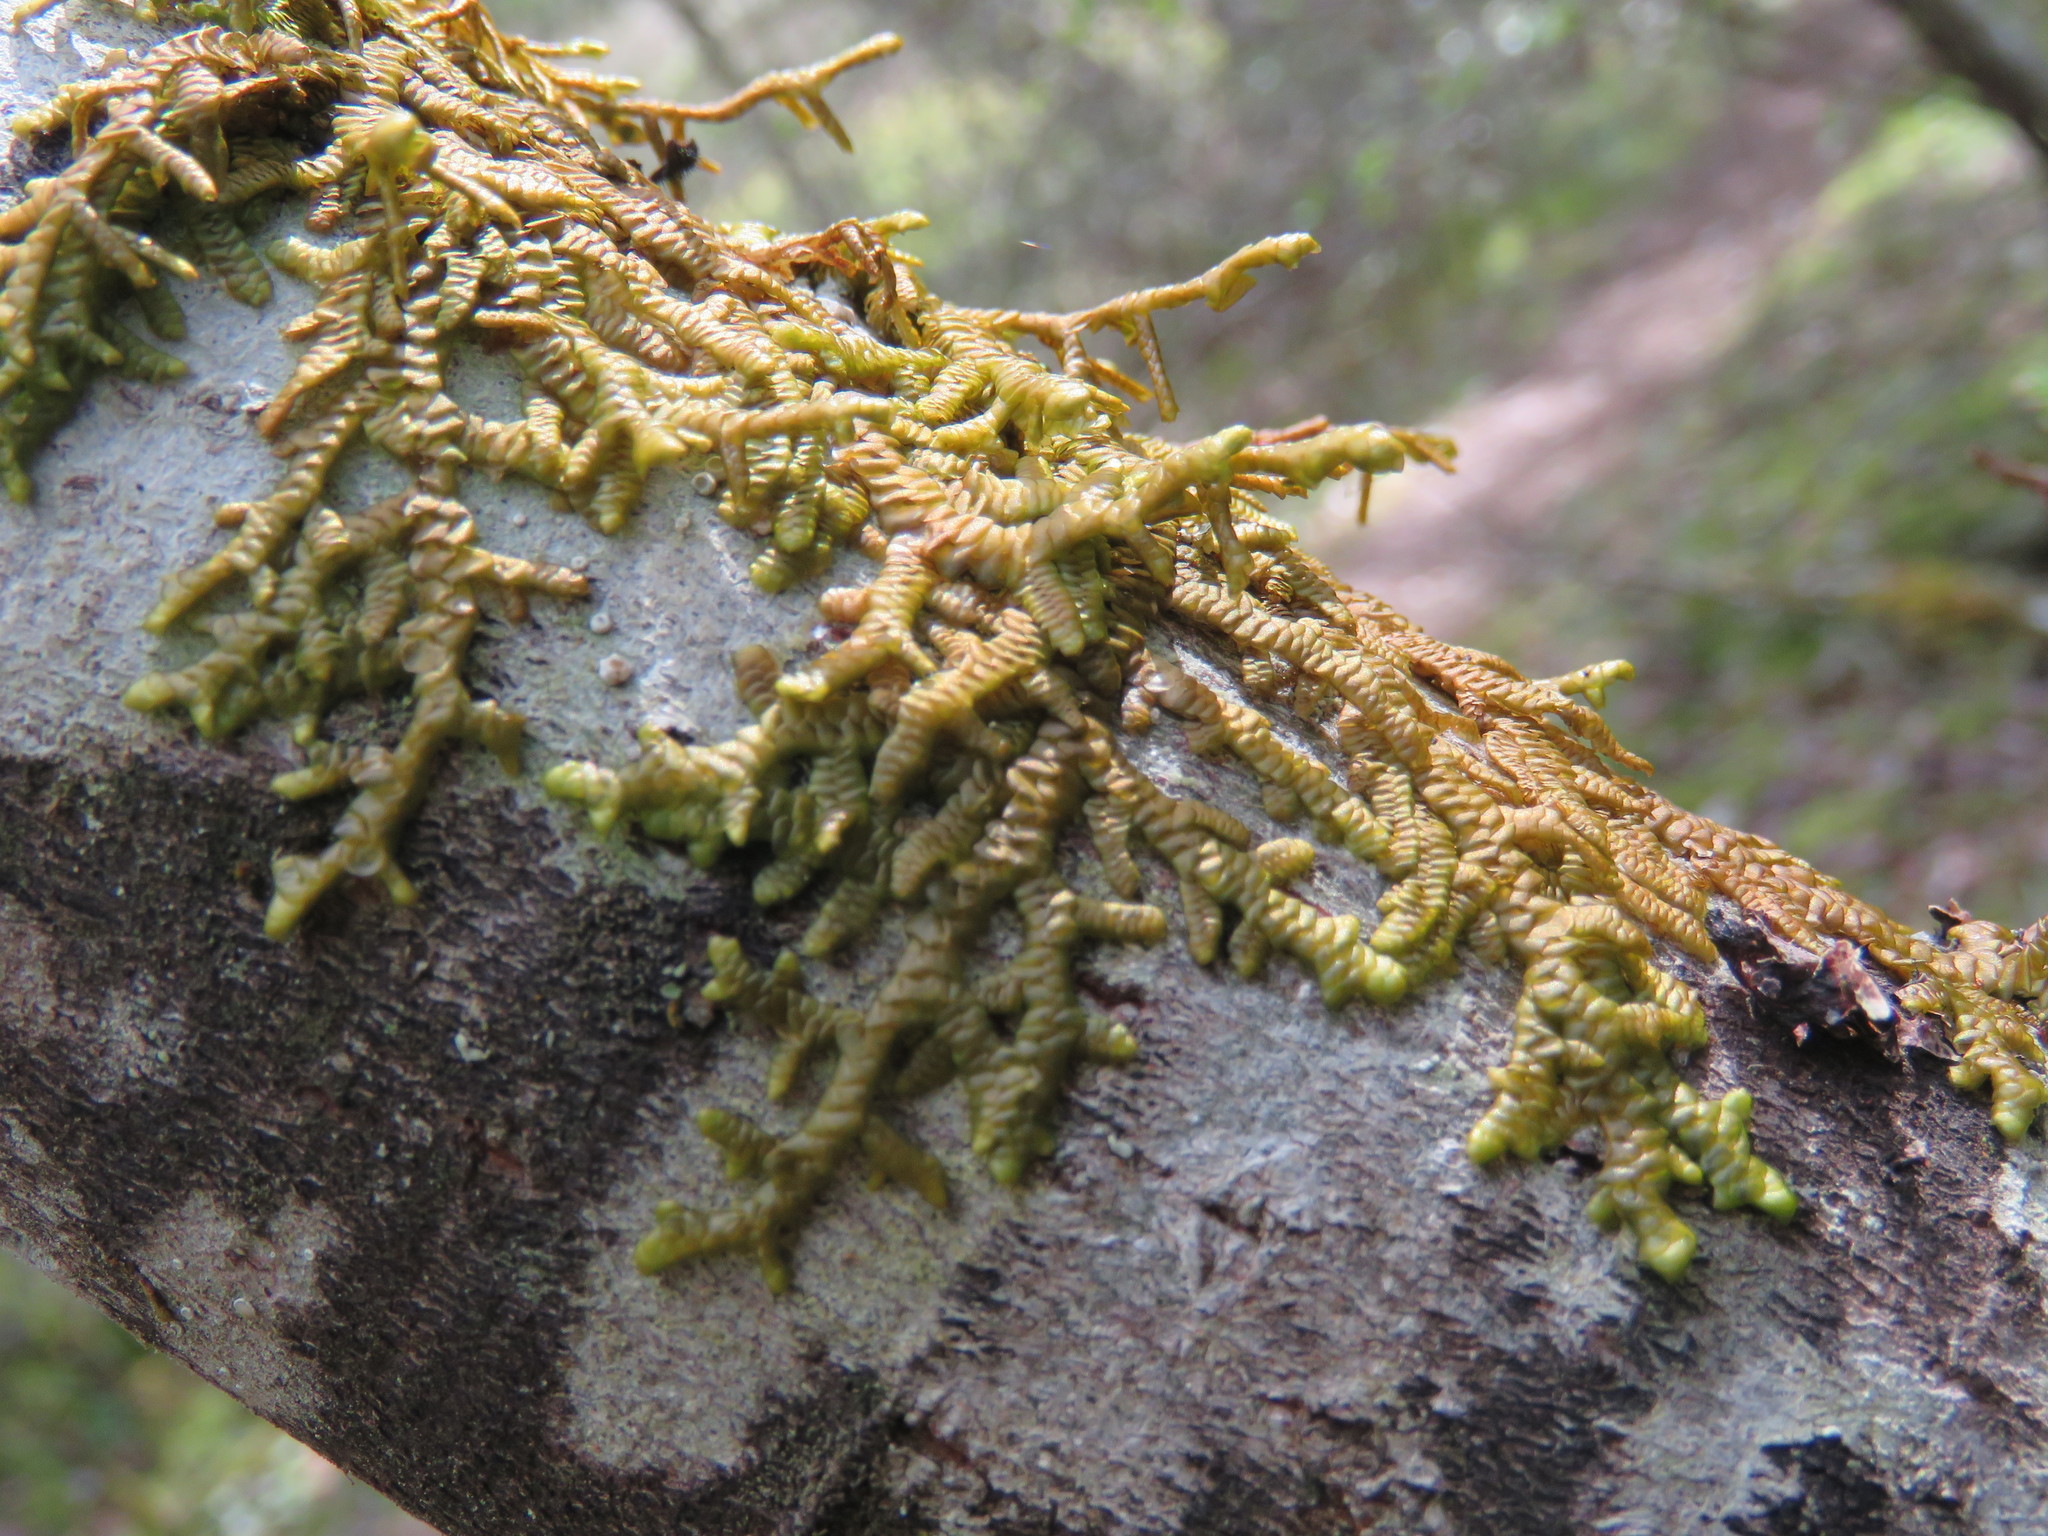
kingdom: Plantae
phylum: Marchantiophyta
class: Jungermanniopsida
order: Porellales
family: Porellaceae
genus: Porella
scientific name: Porella navicularis
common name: Tree ruffle liverwort
